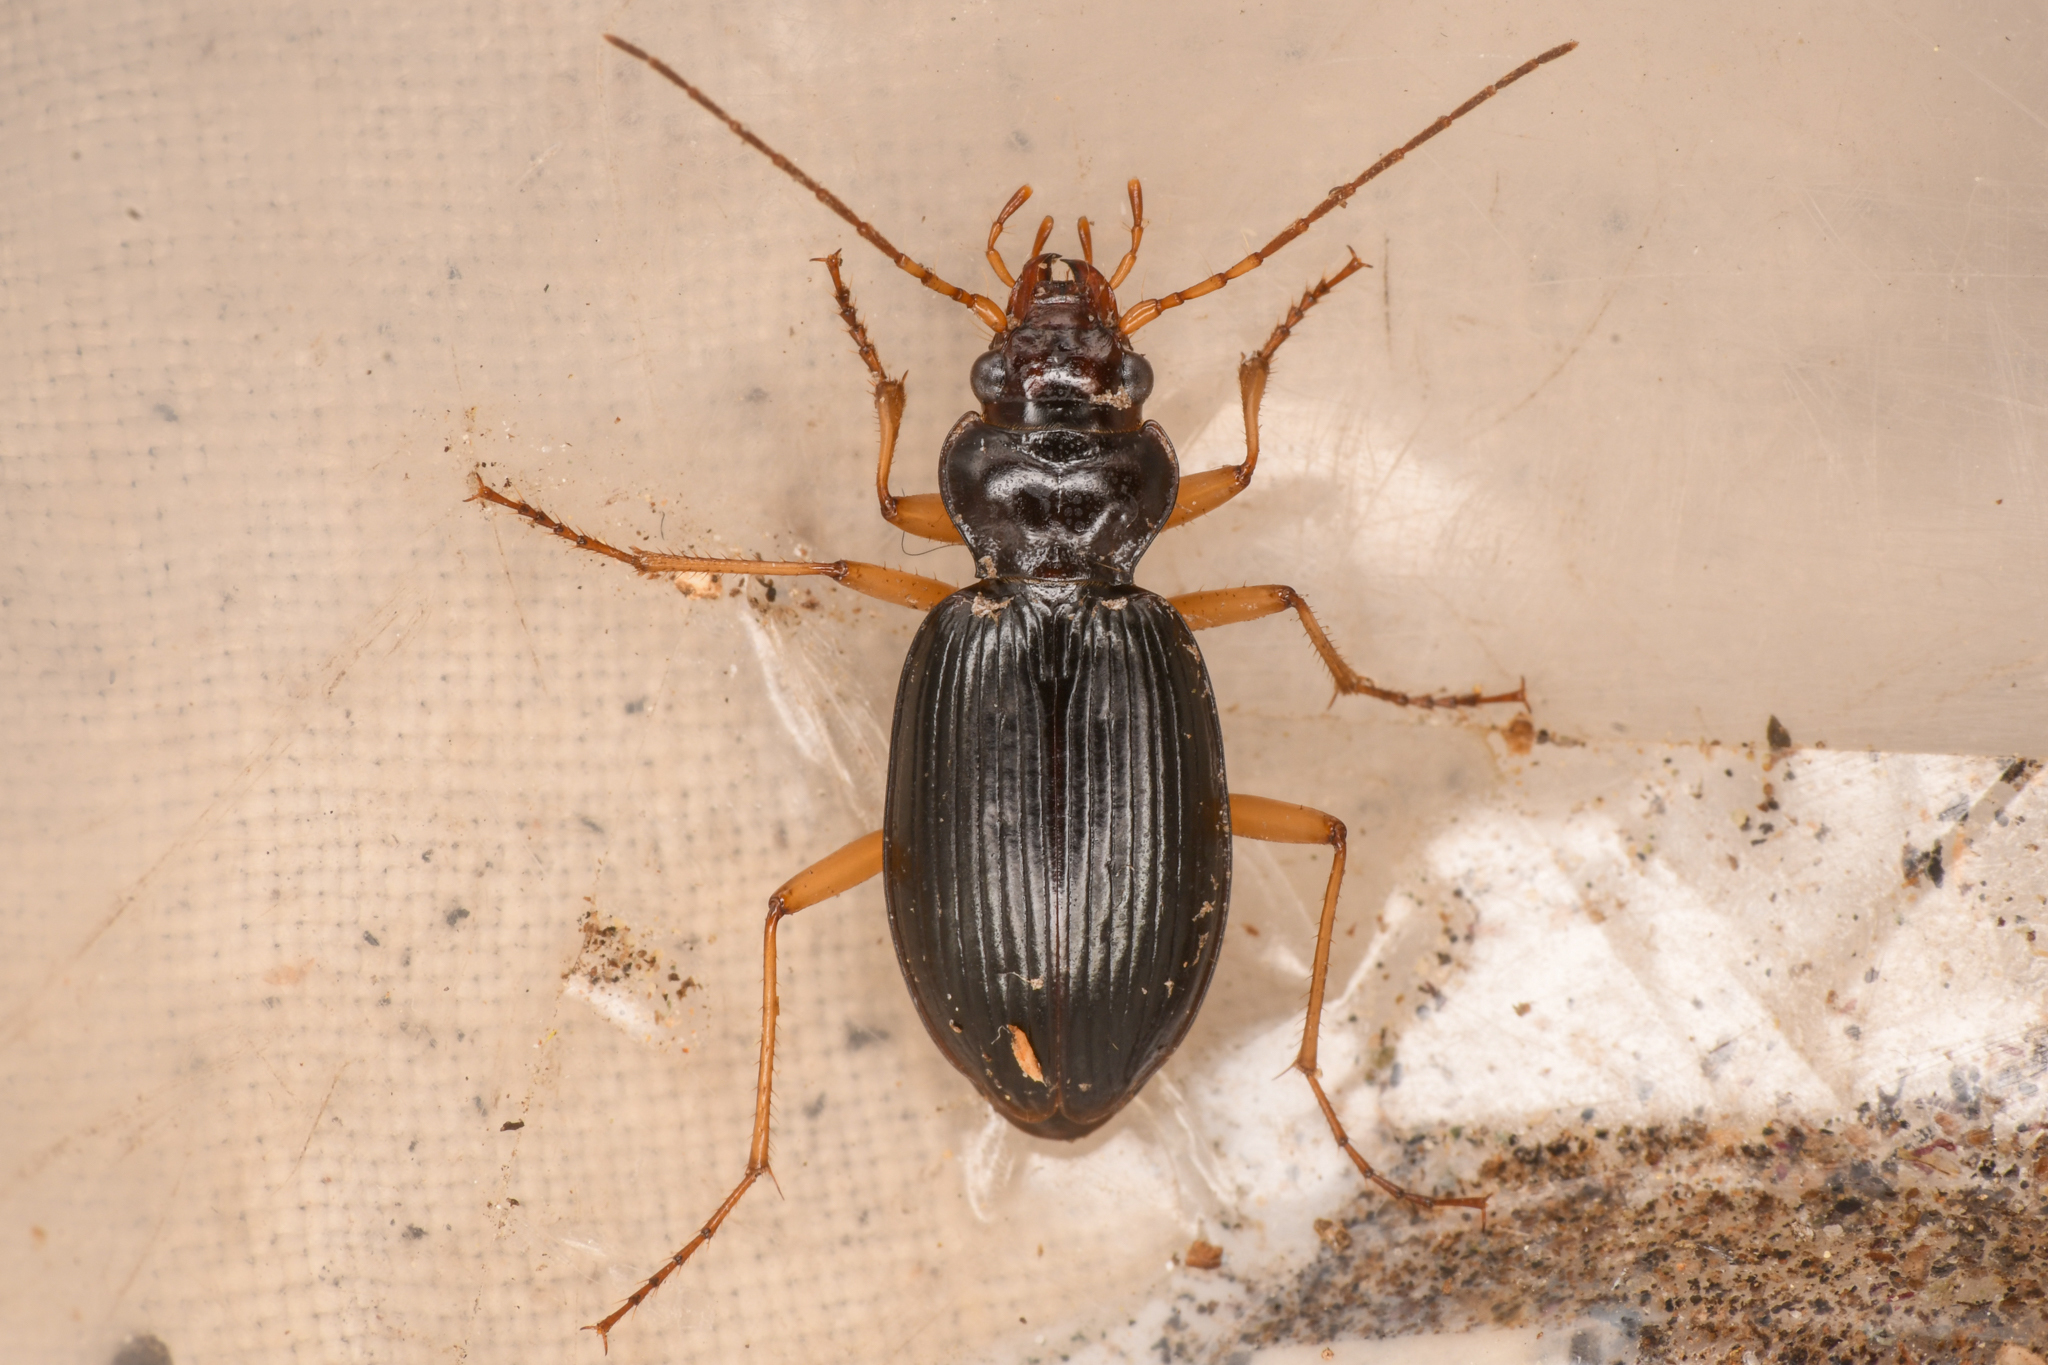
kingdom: Animalia
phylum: Arthropoda
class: Insecta
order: Coleoptera
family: Carabidae
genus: Nebria
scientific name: Nebria eschscholtzii
